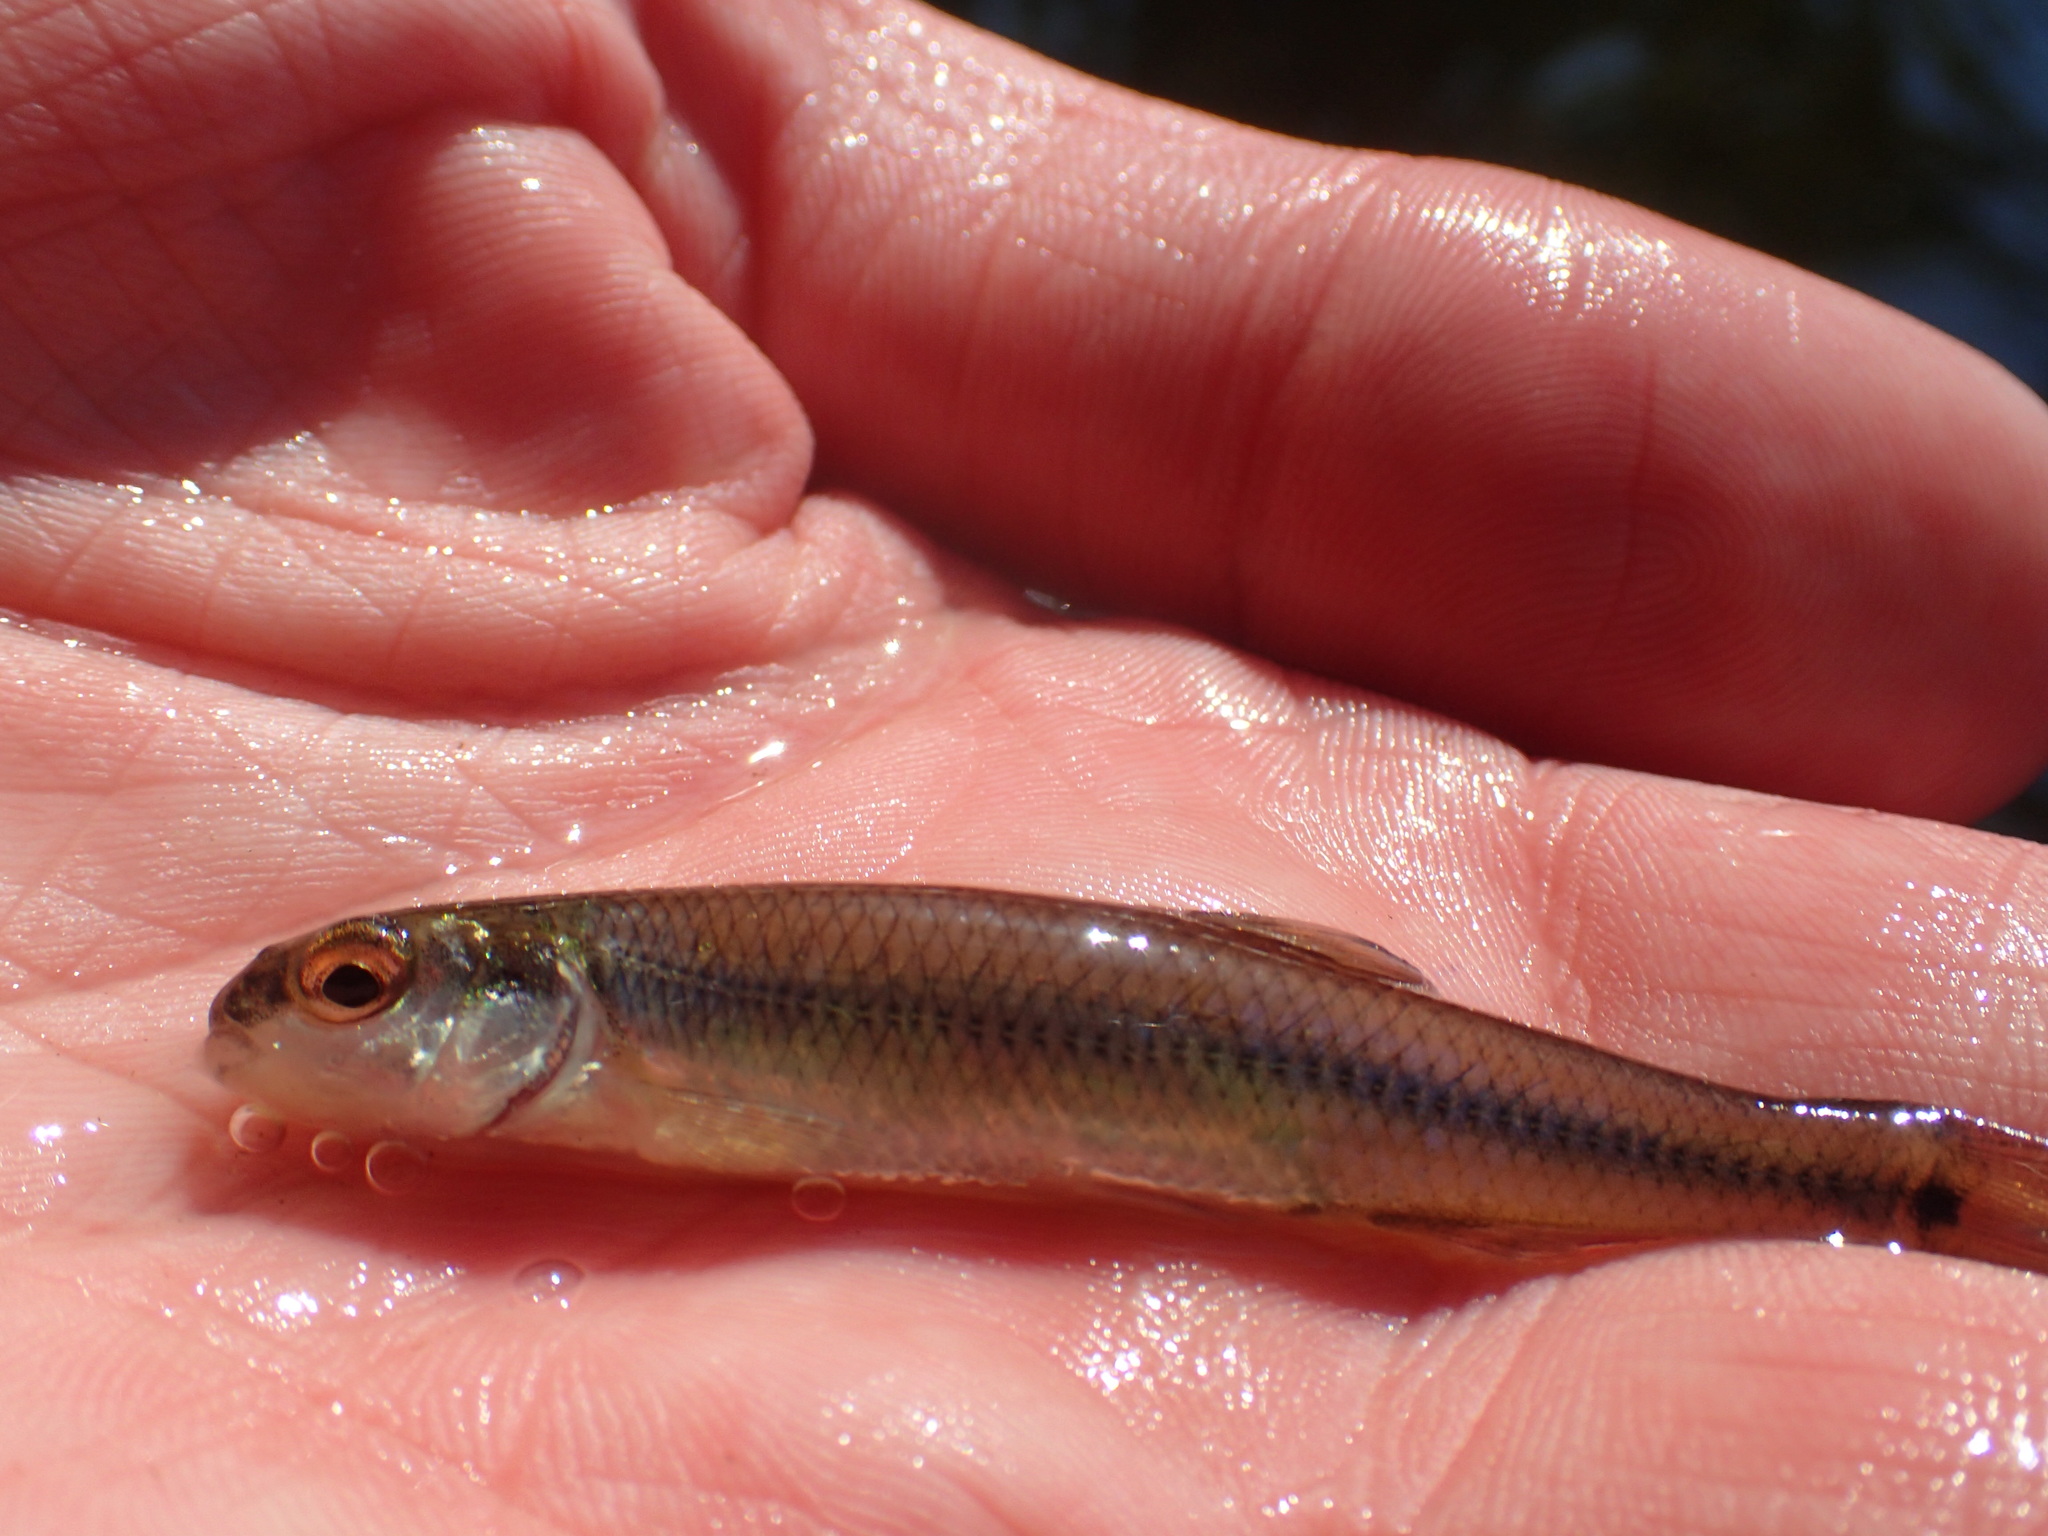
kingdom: Animalia
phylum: Chordata
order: Cypriniformes
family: Cyprinidae
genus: Pimephales
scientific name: Pimephales notatus
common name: Bluntnose minnow
